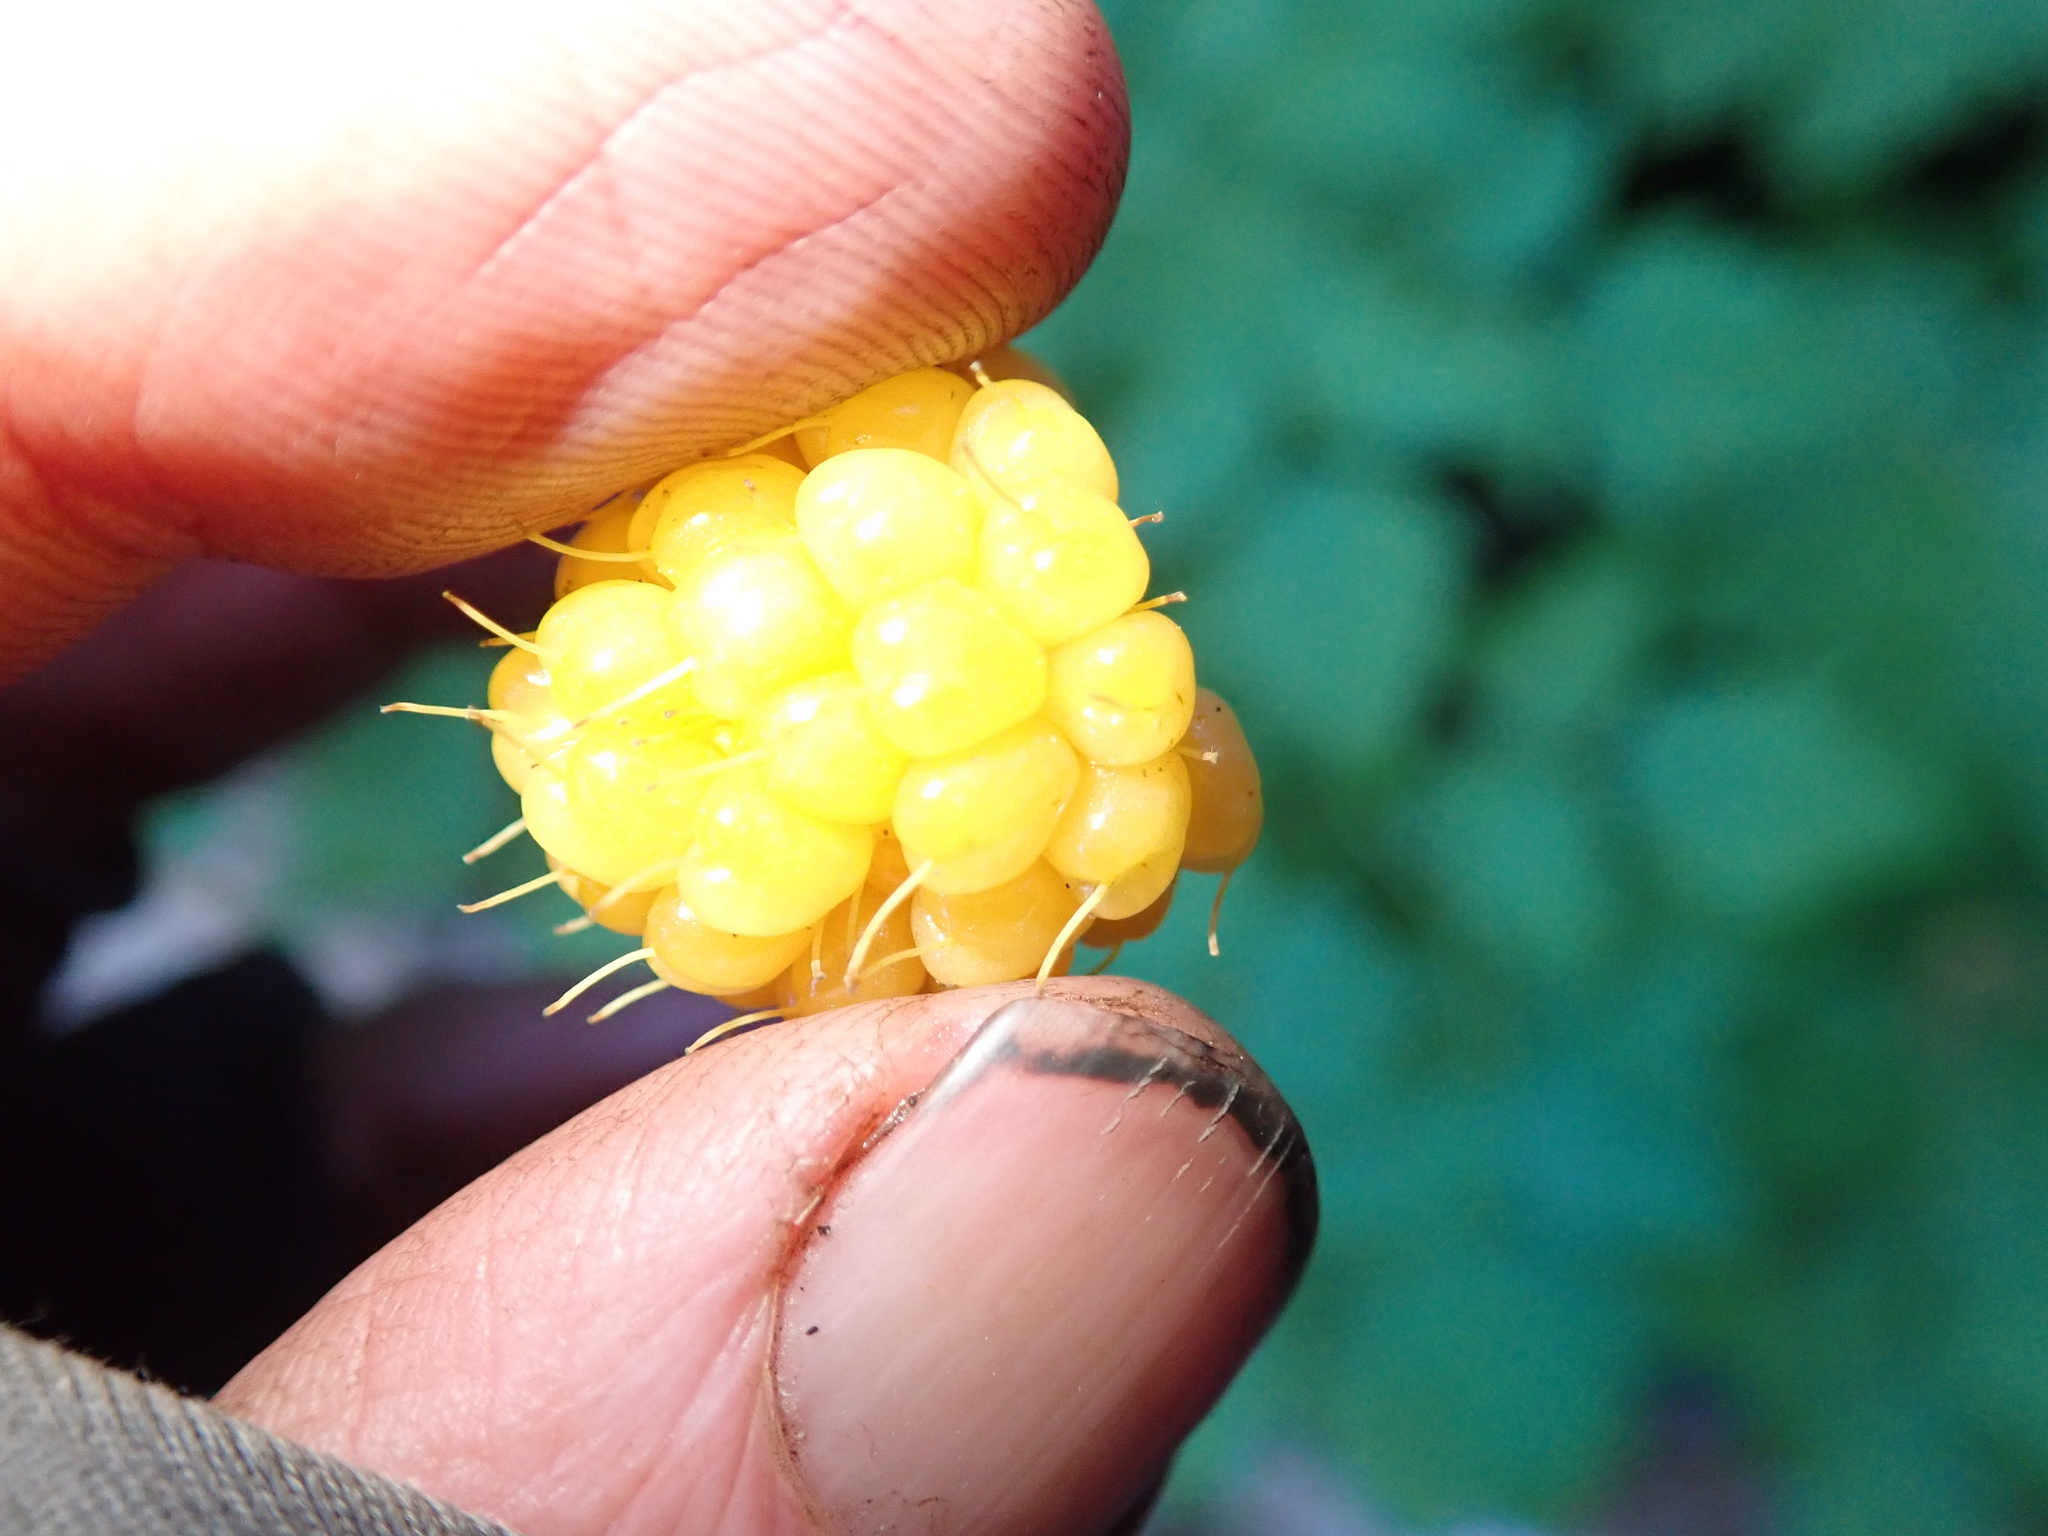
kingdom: Plantae
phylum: Tracheophyta
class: Magnoliopsida
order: Rosales
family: Rosaceae
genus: Rubus
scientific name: Rubus spectabilis
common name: Salmonberry
